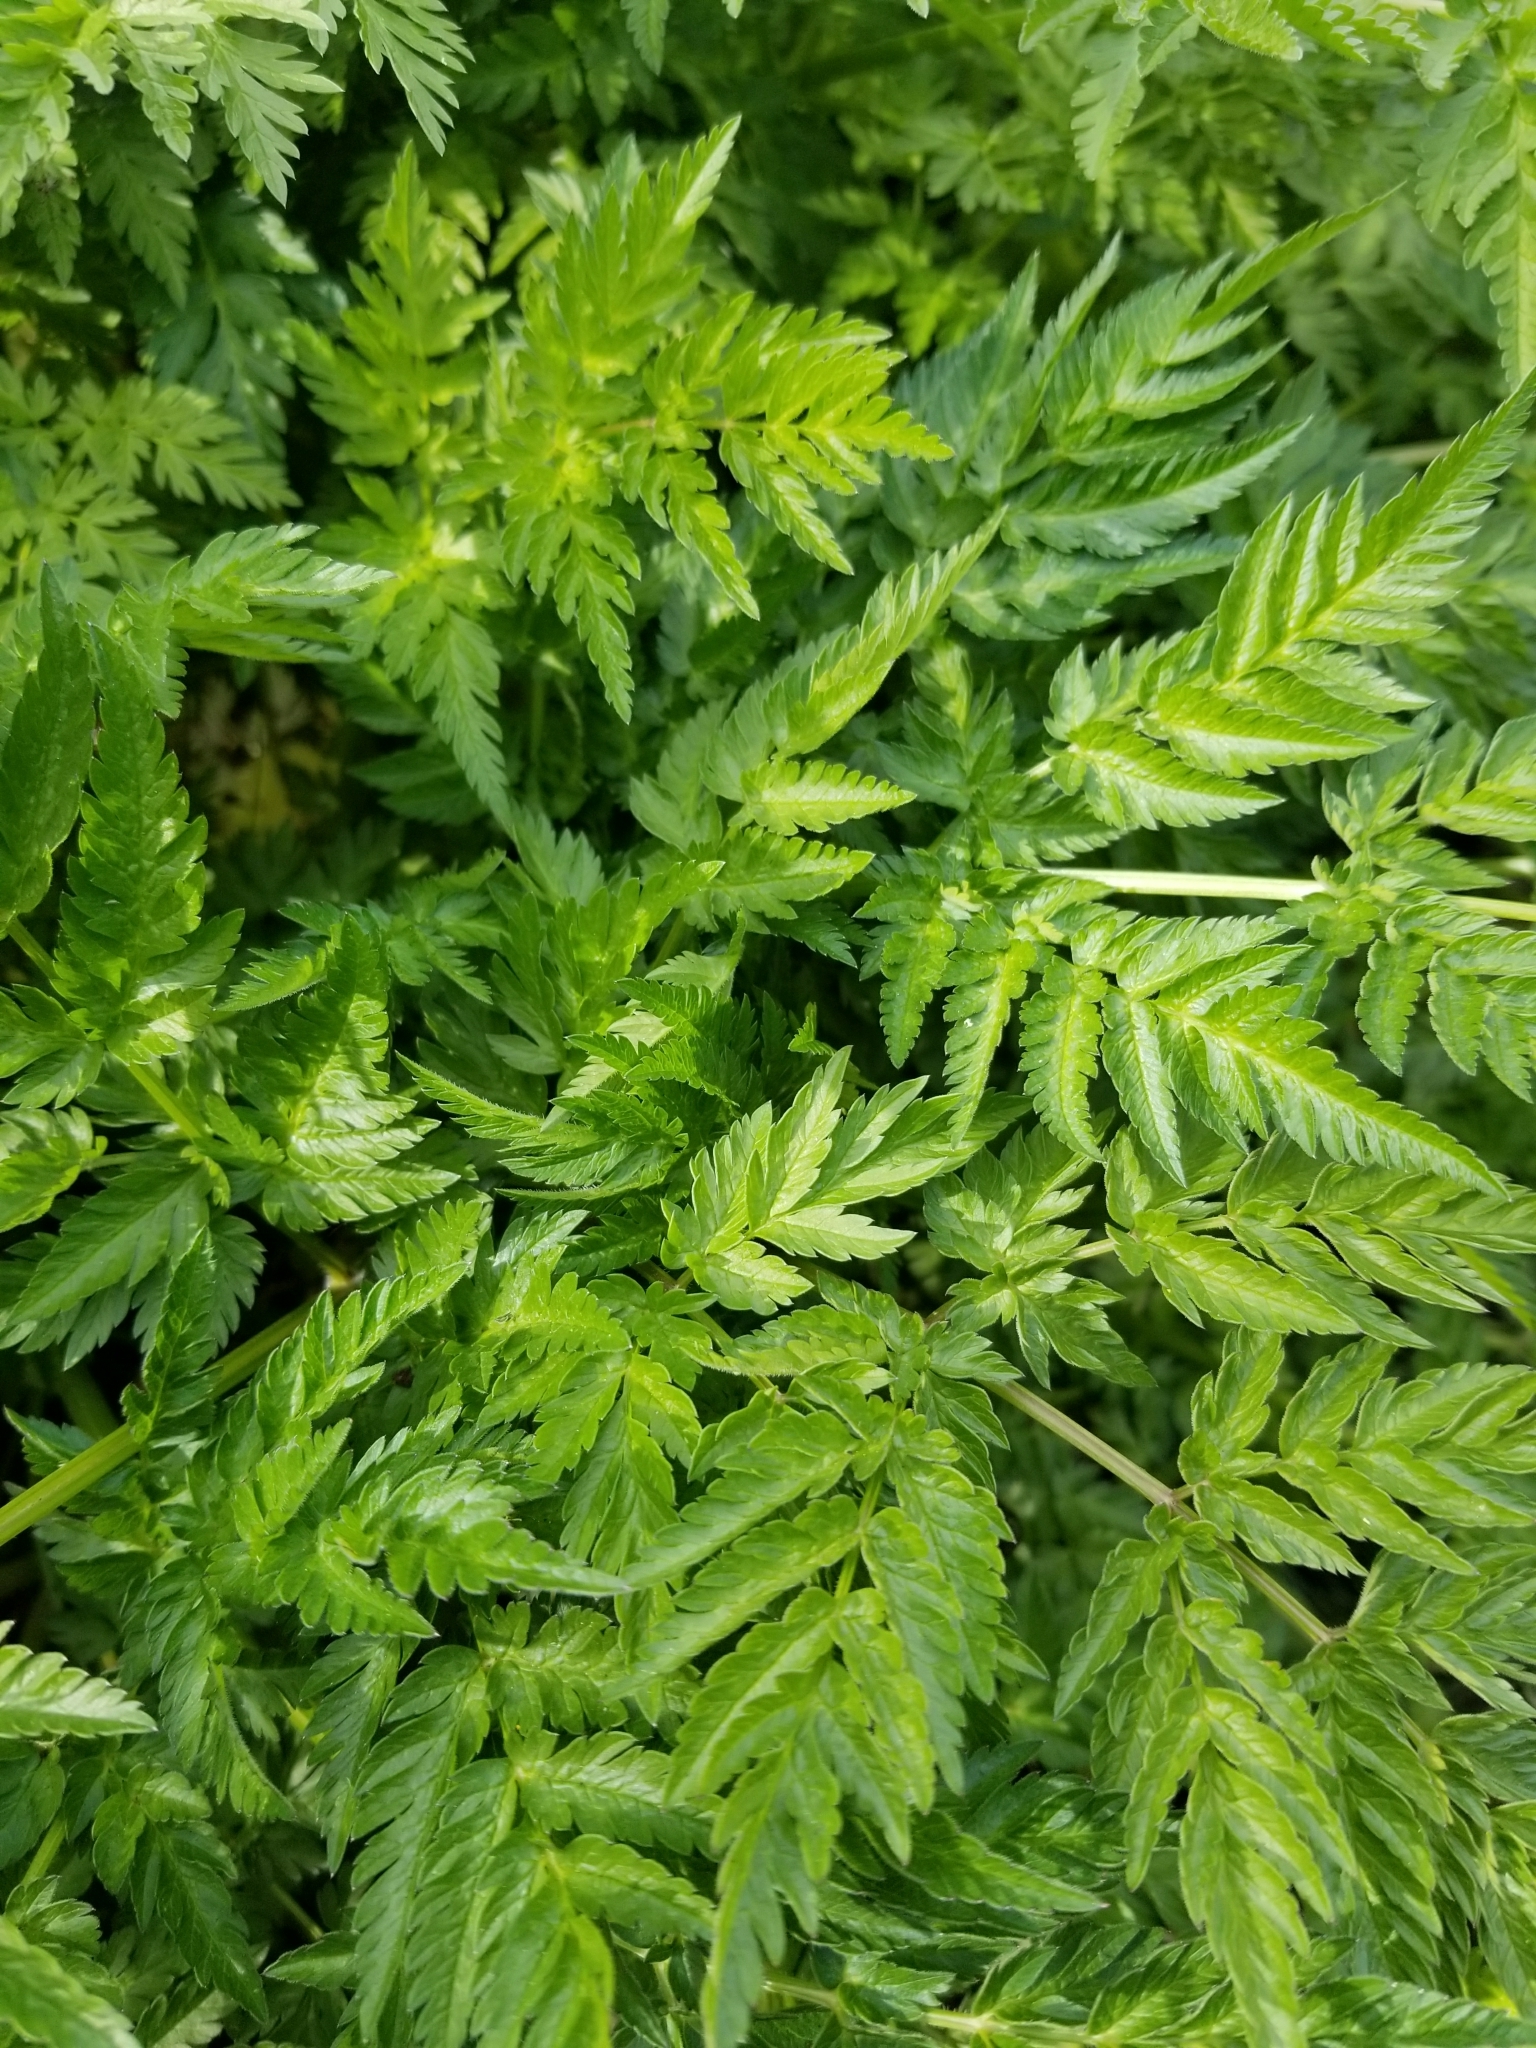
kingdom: Plantae
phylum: Tracheophyta
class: Magnoliopsida
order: Apiales
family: Apiaceae
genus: Anthriscus
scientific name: Anthriscus sylvestris
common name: Cow parsley
